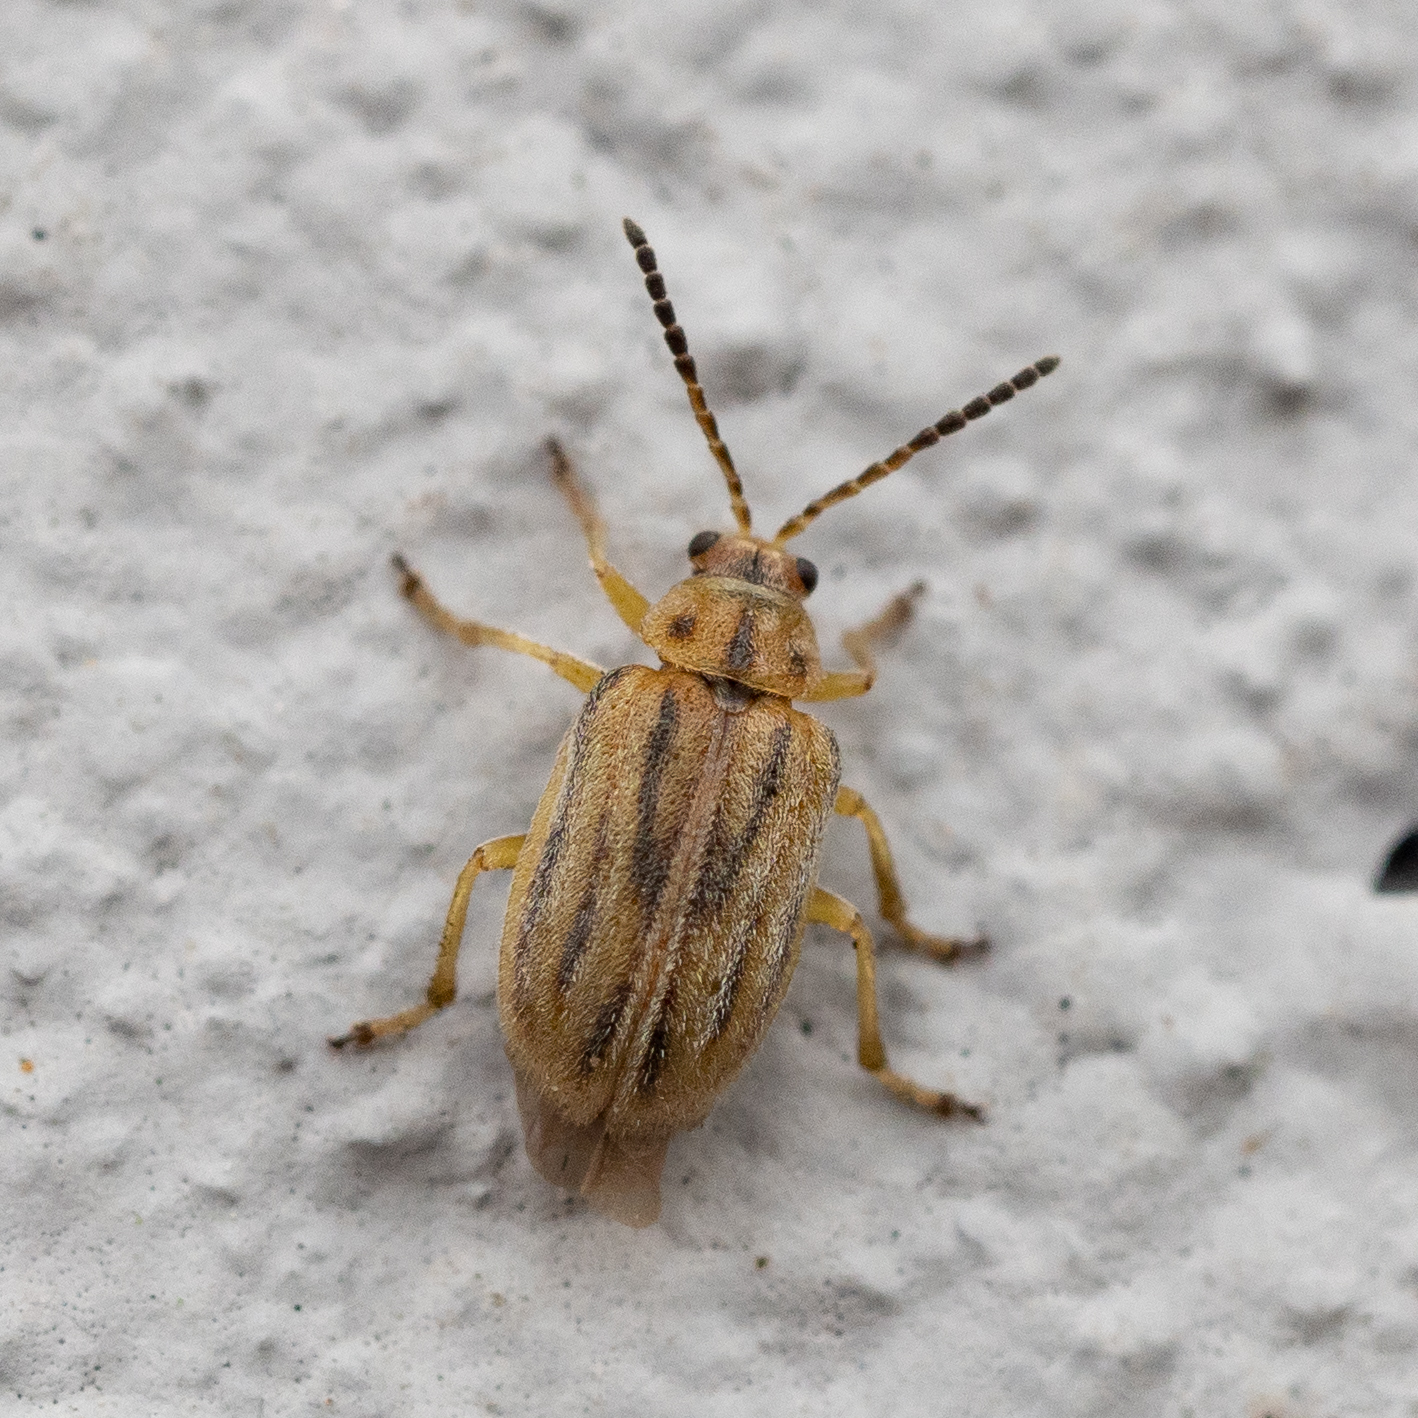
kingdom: Animalia
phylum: Arthropoda
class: Insecta
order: Coleoptera
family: Chrysomelidae
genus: Ophraella
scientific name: Ophraella communa
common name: Ragweed leaf beetle
